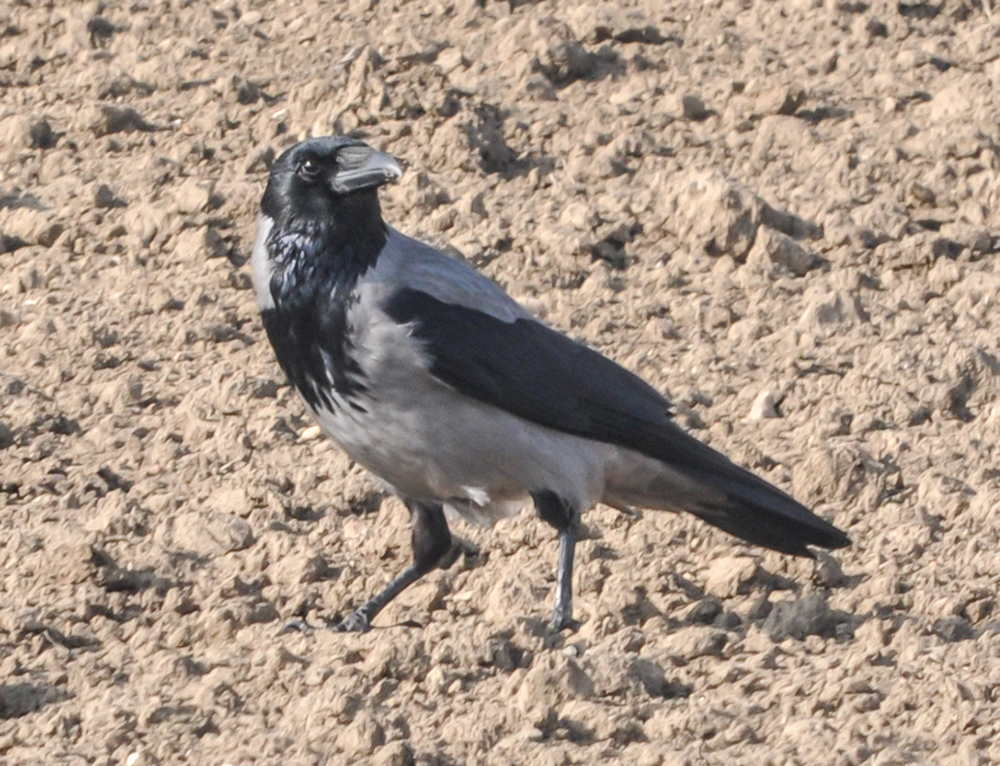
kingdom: Animalia
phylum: Chordata
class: Aves
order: Passeriformes
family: Corvidae
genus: Corvus
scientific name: Corvus cornix
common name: Hooded crow
